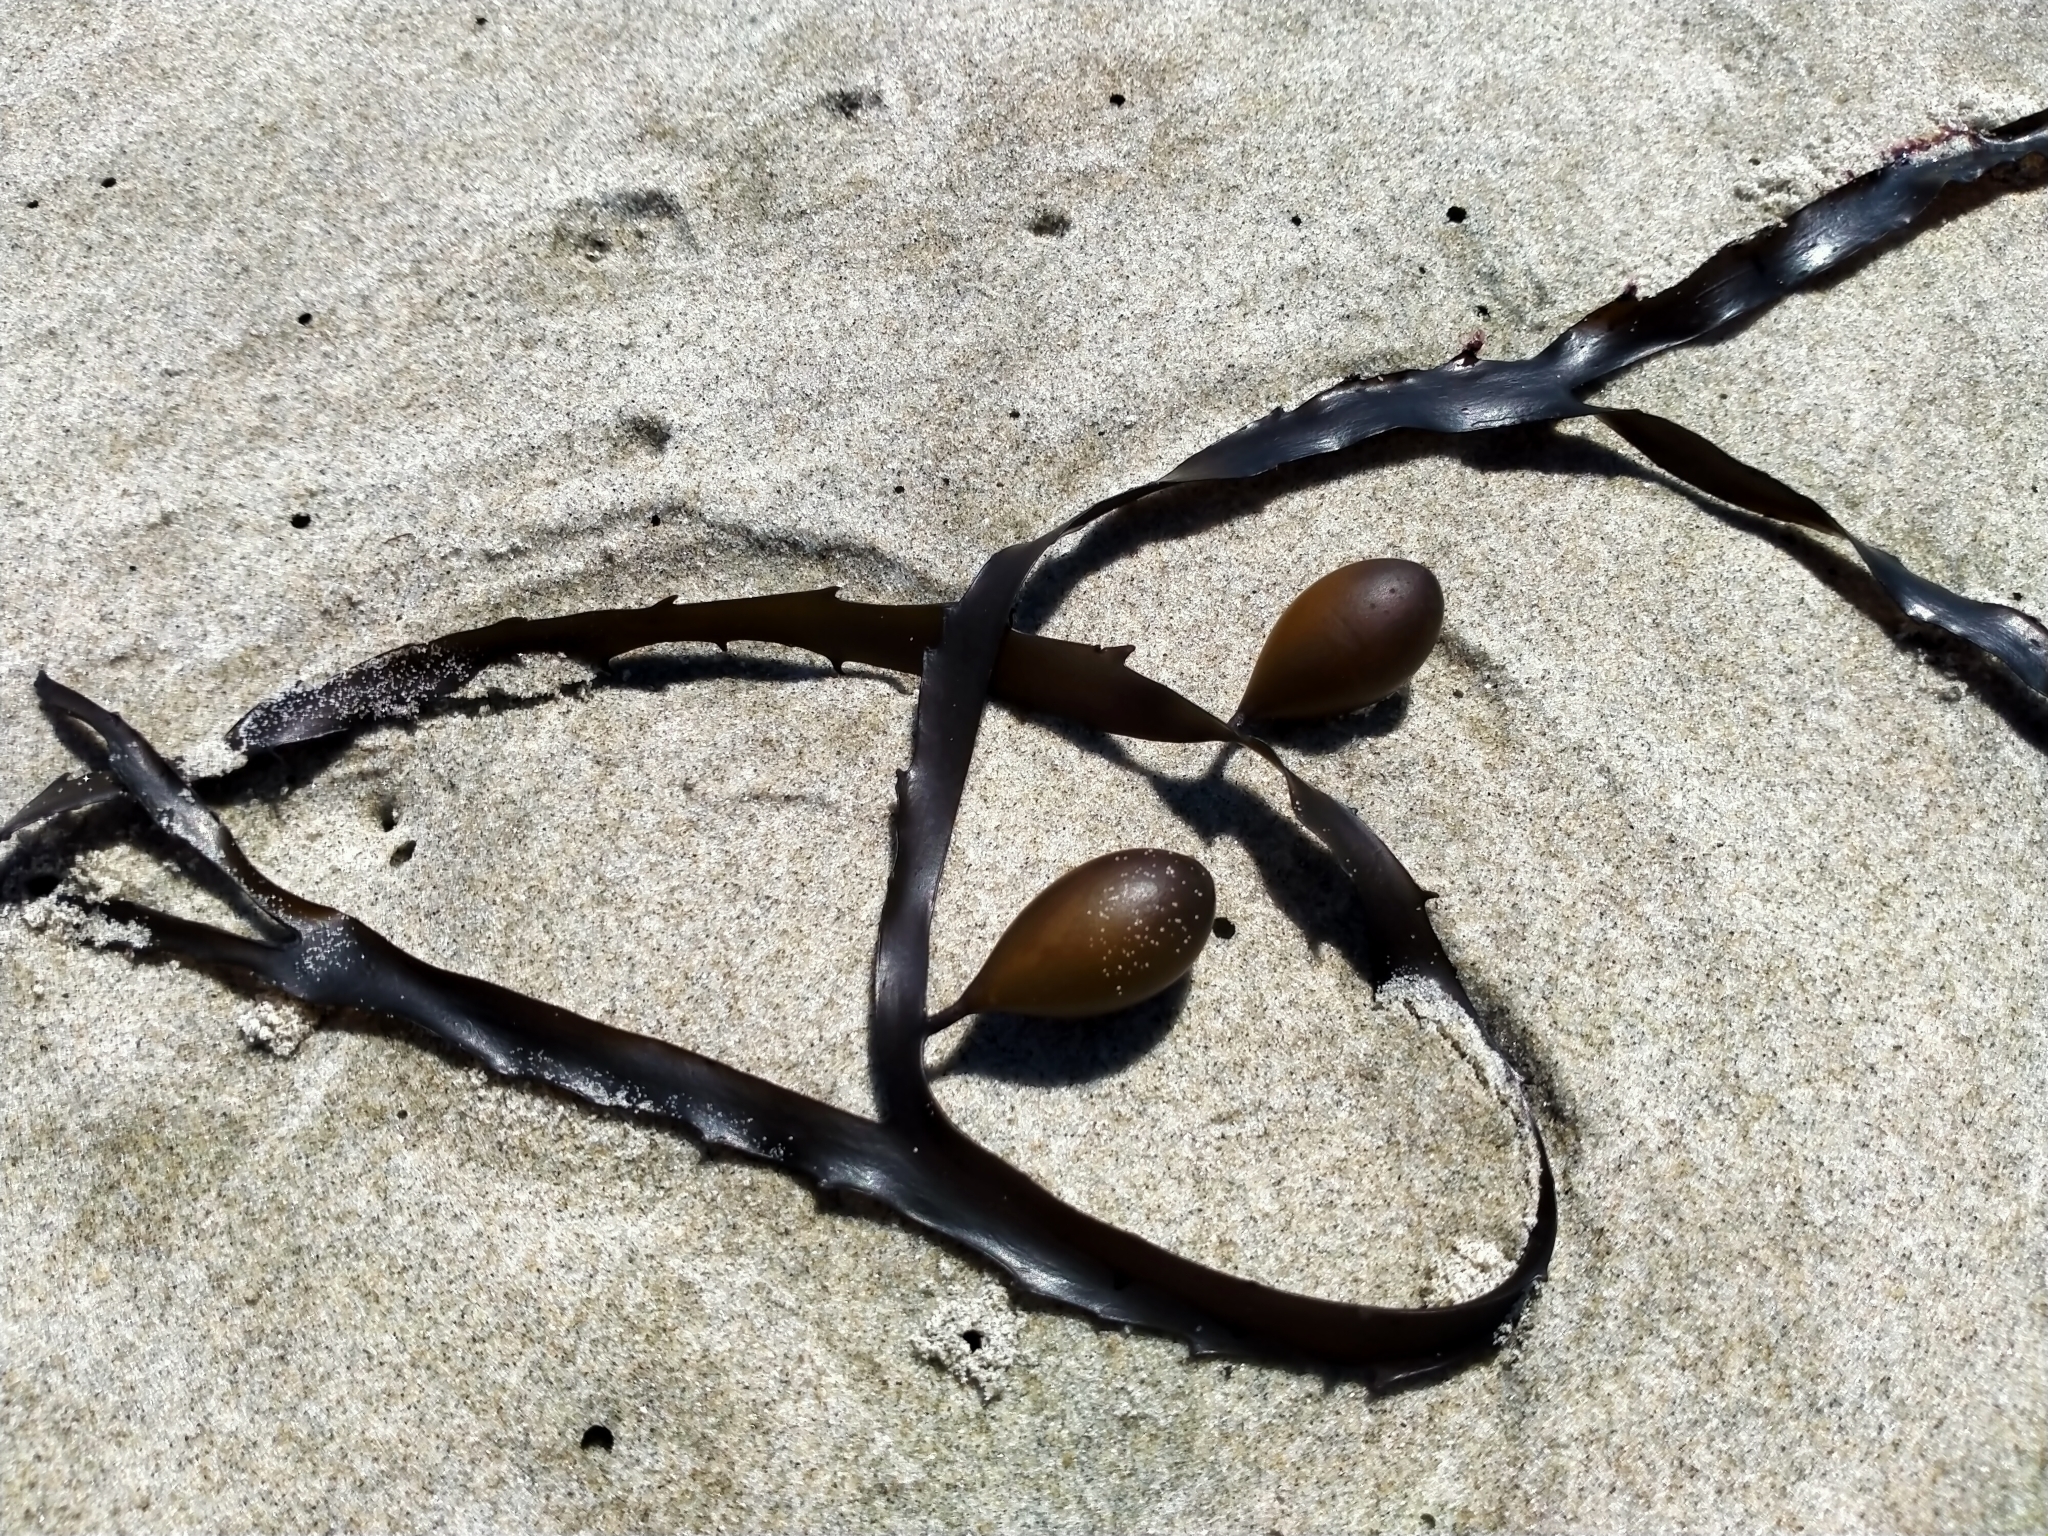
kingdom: Chromista
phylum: Ochrophyta
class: Phaeophyceae
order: Fucales
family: Seirococcaceae
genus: Marginariella
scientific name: Marginariella boryana
